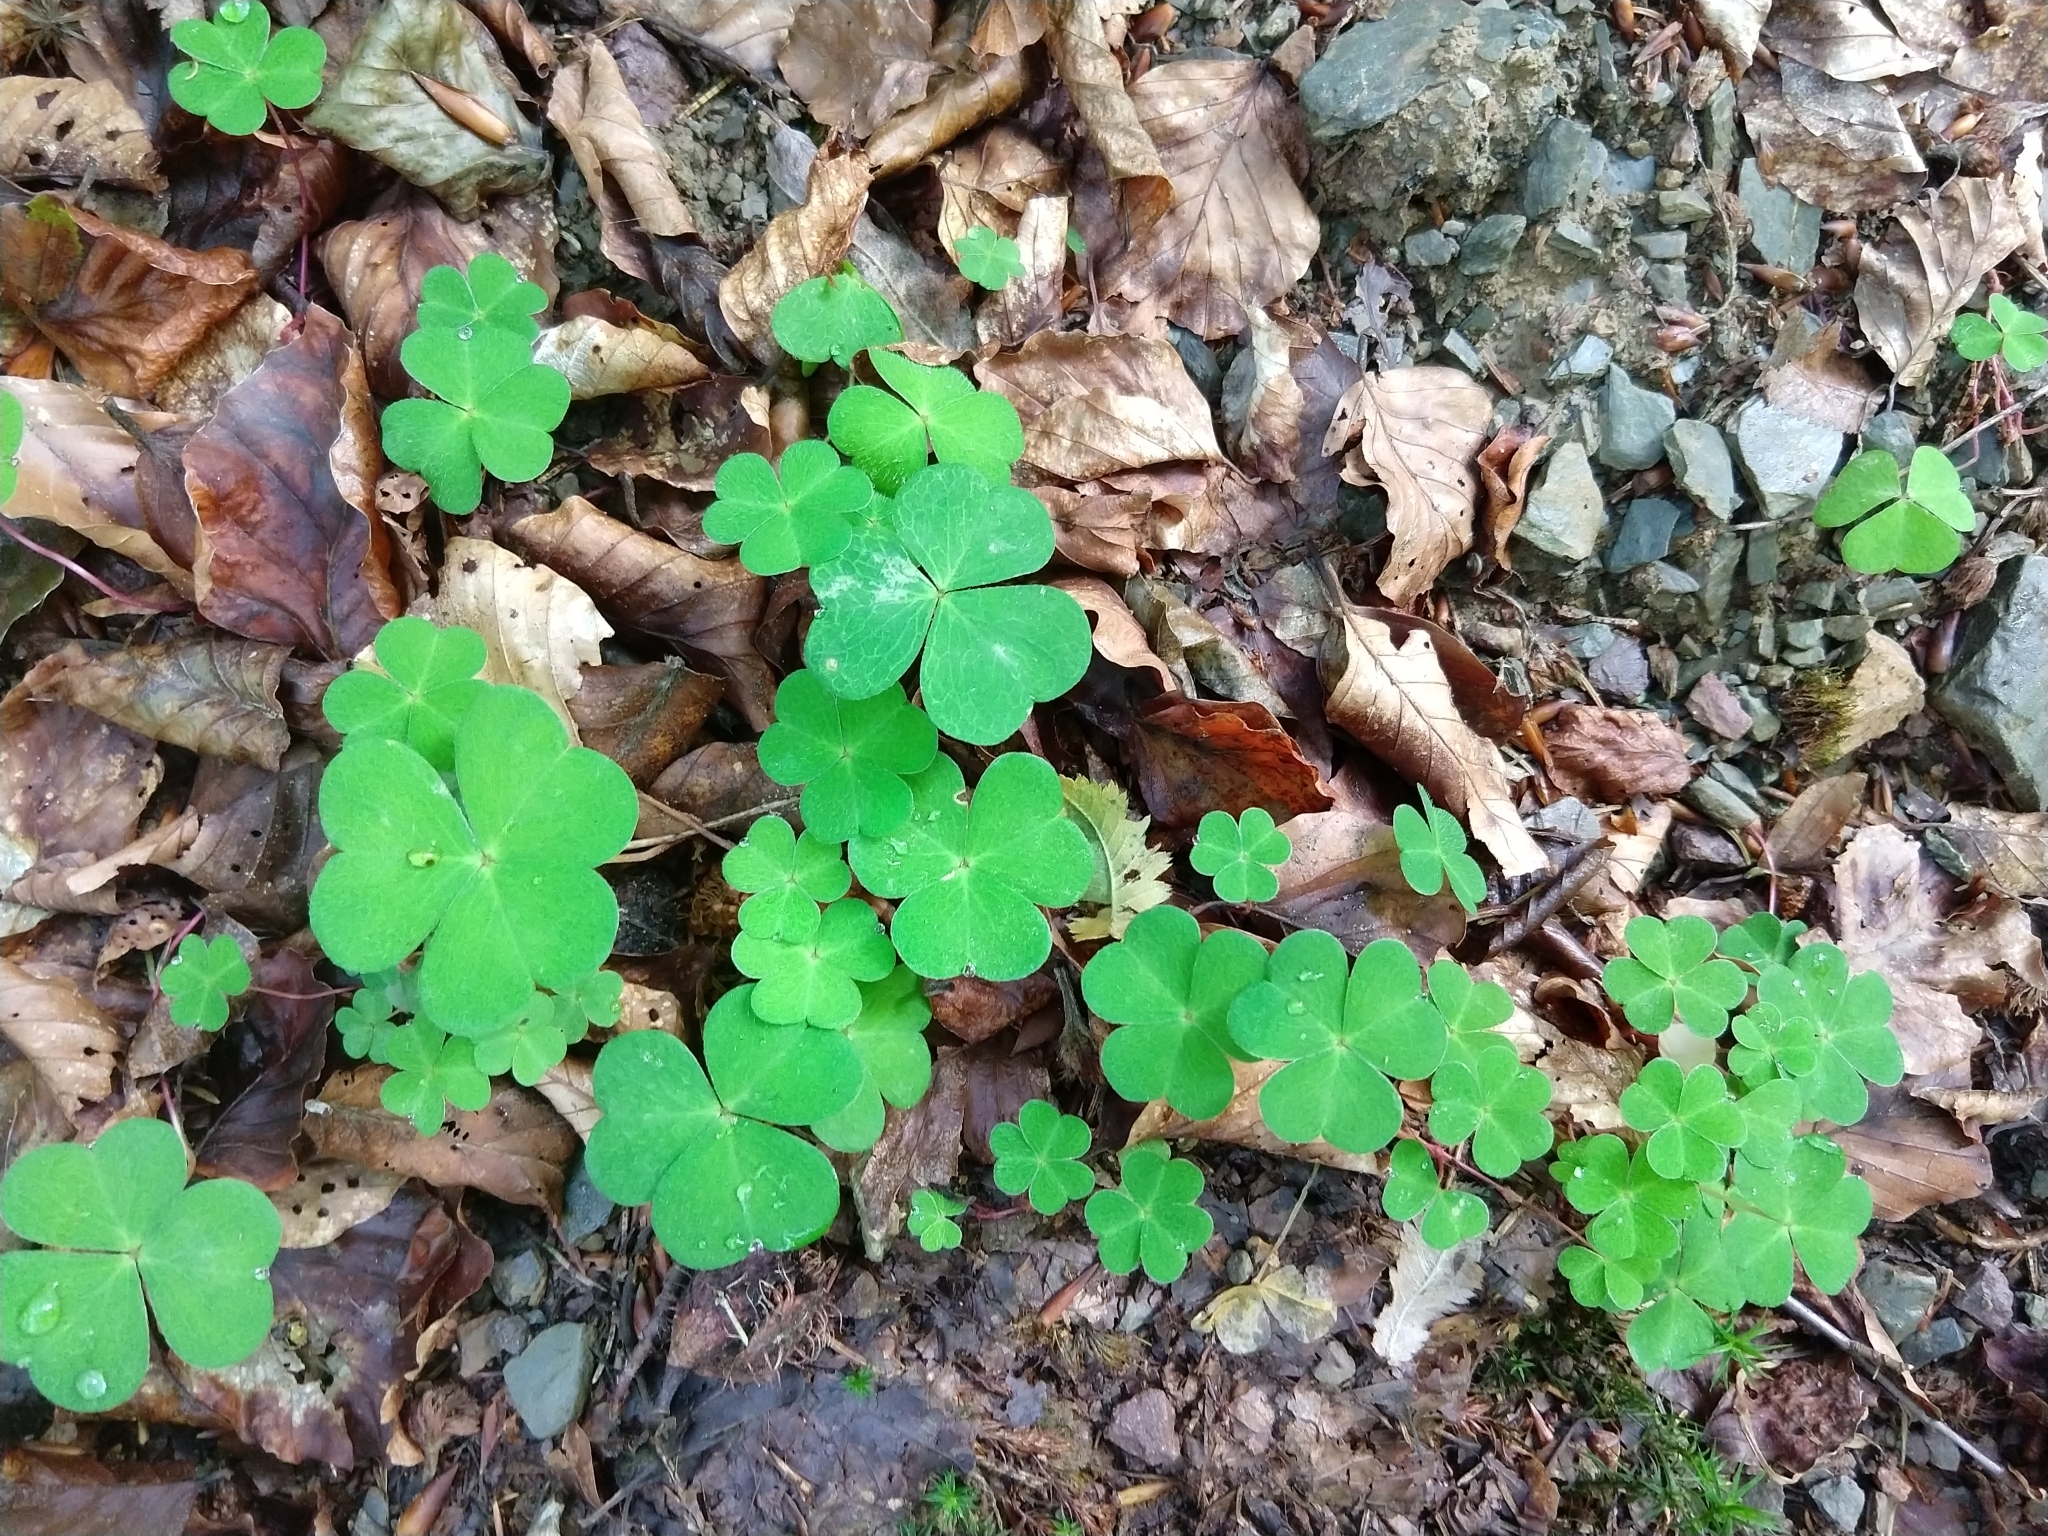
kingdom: Plantae
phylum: Tracheophyta
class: Magnoliopsida
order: Oxalidales
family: Oxalidaceae
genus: Oxalis
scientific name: Oxalis acetosella
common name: Wood-sorrel
